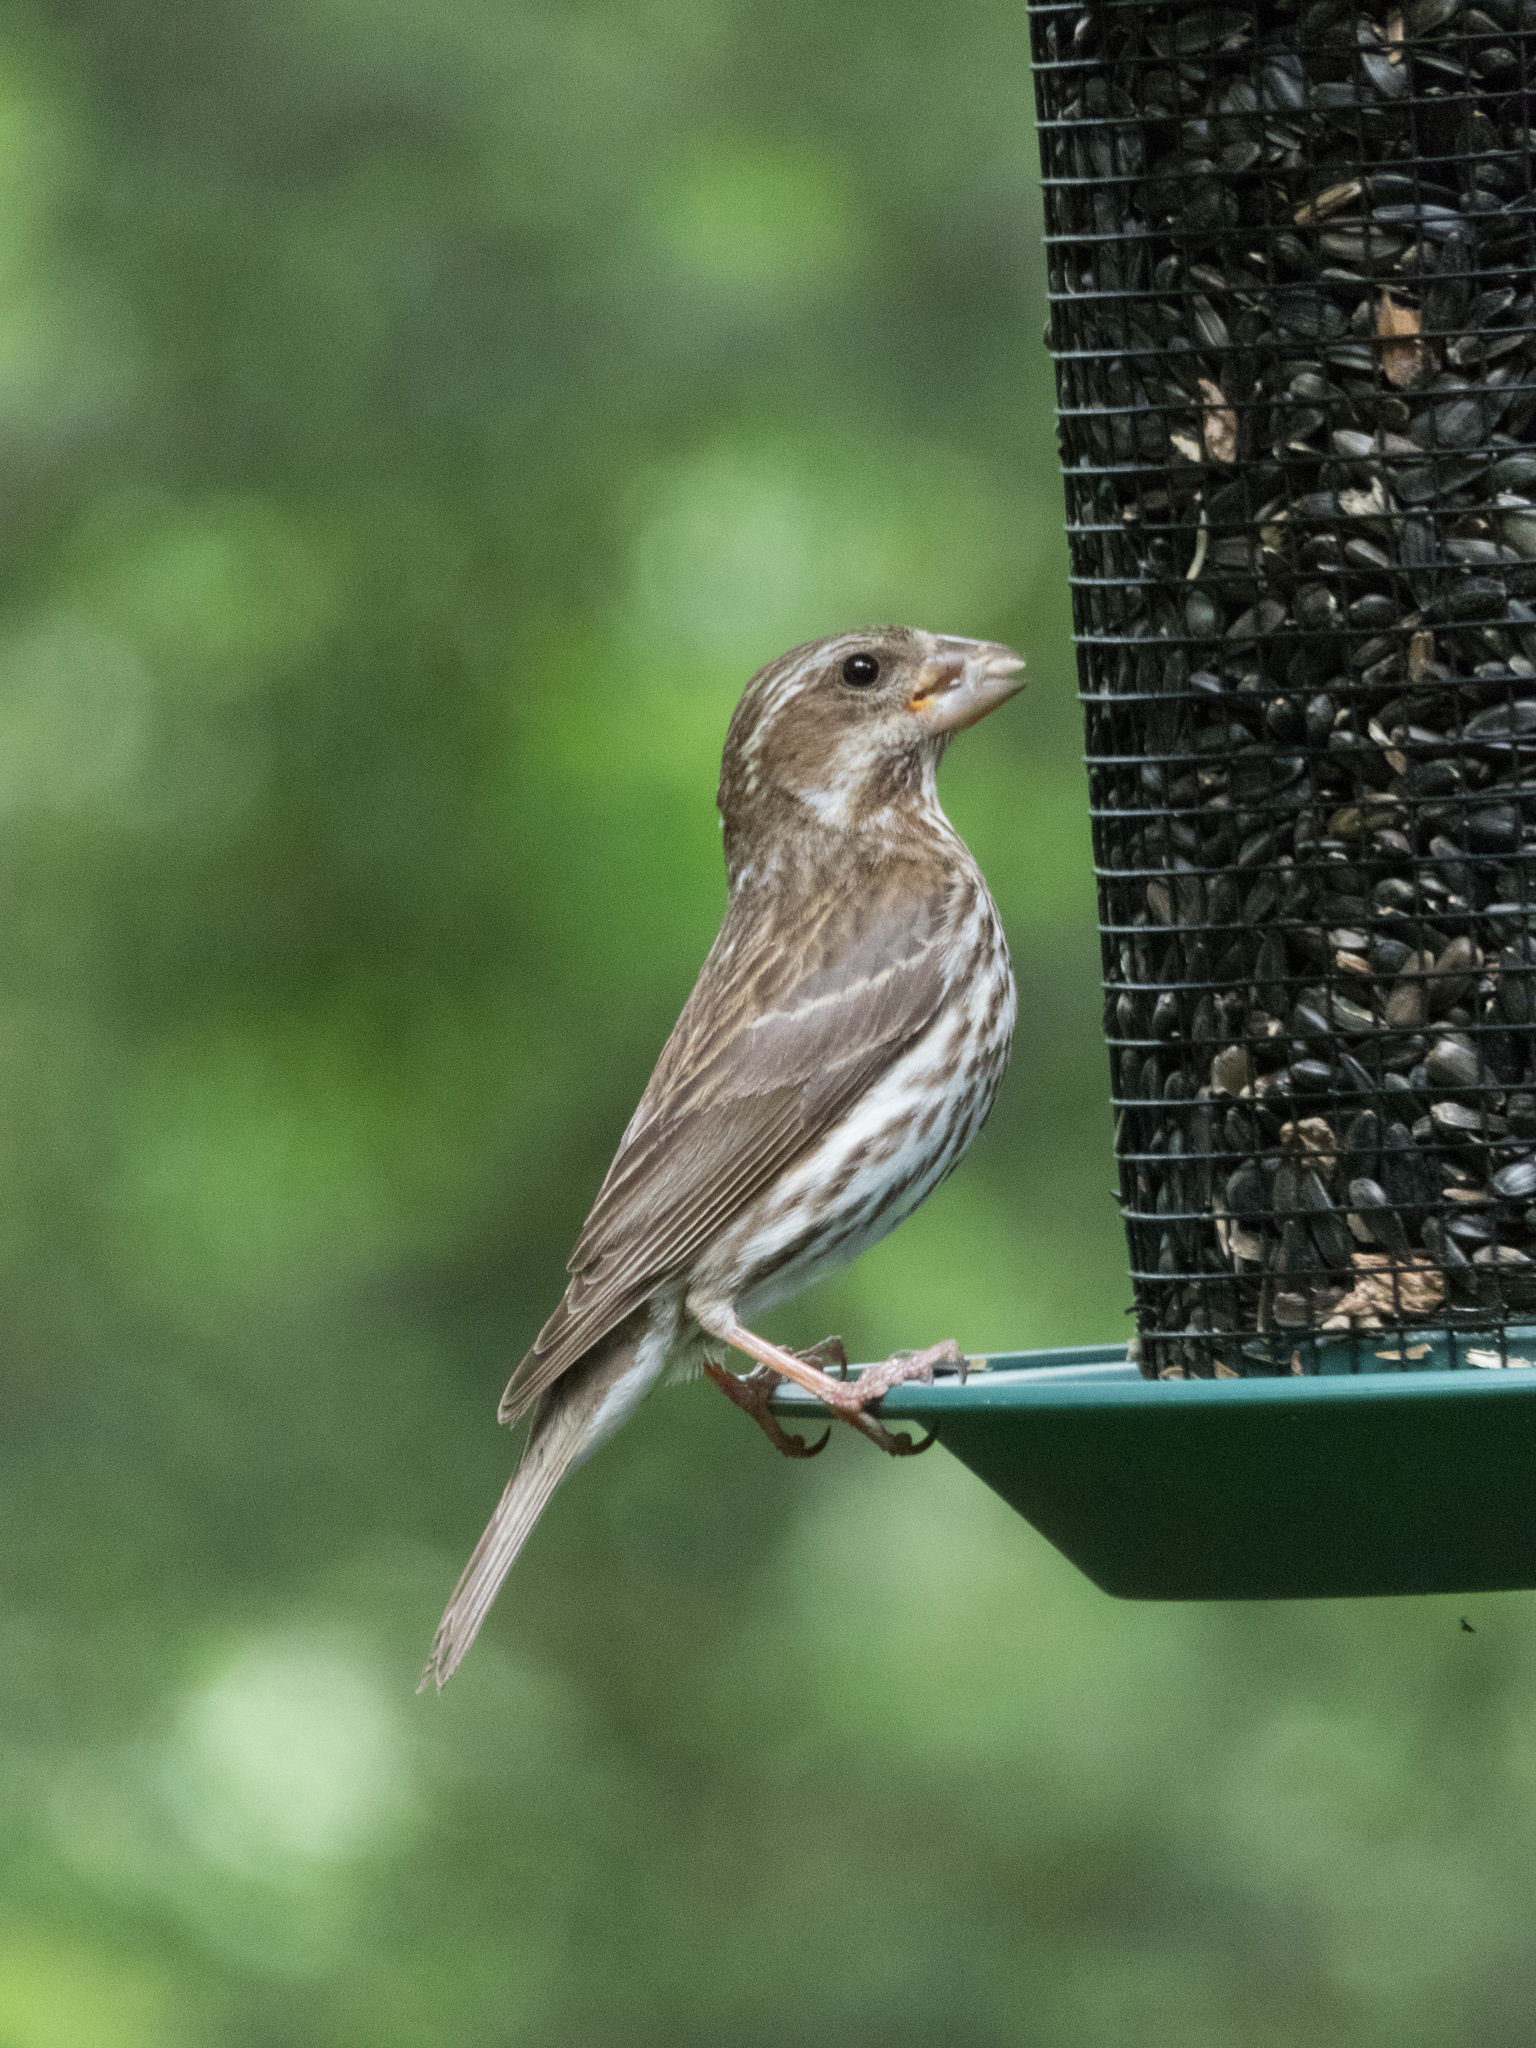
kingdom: Animalia
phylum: Chordata
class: Aves
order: Passeriformes
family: Fringillidae
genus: Haemorhous
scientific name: Haemorhous purpureus
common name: Purple finch
